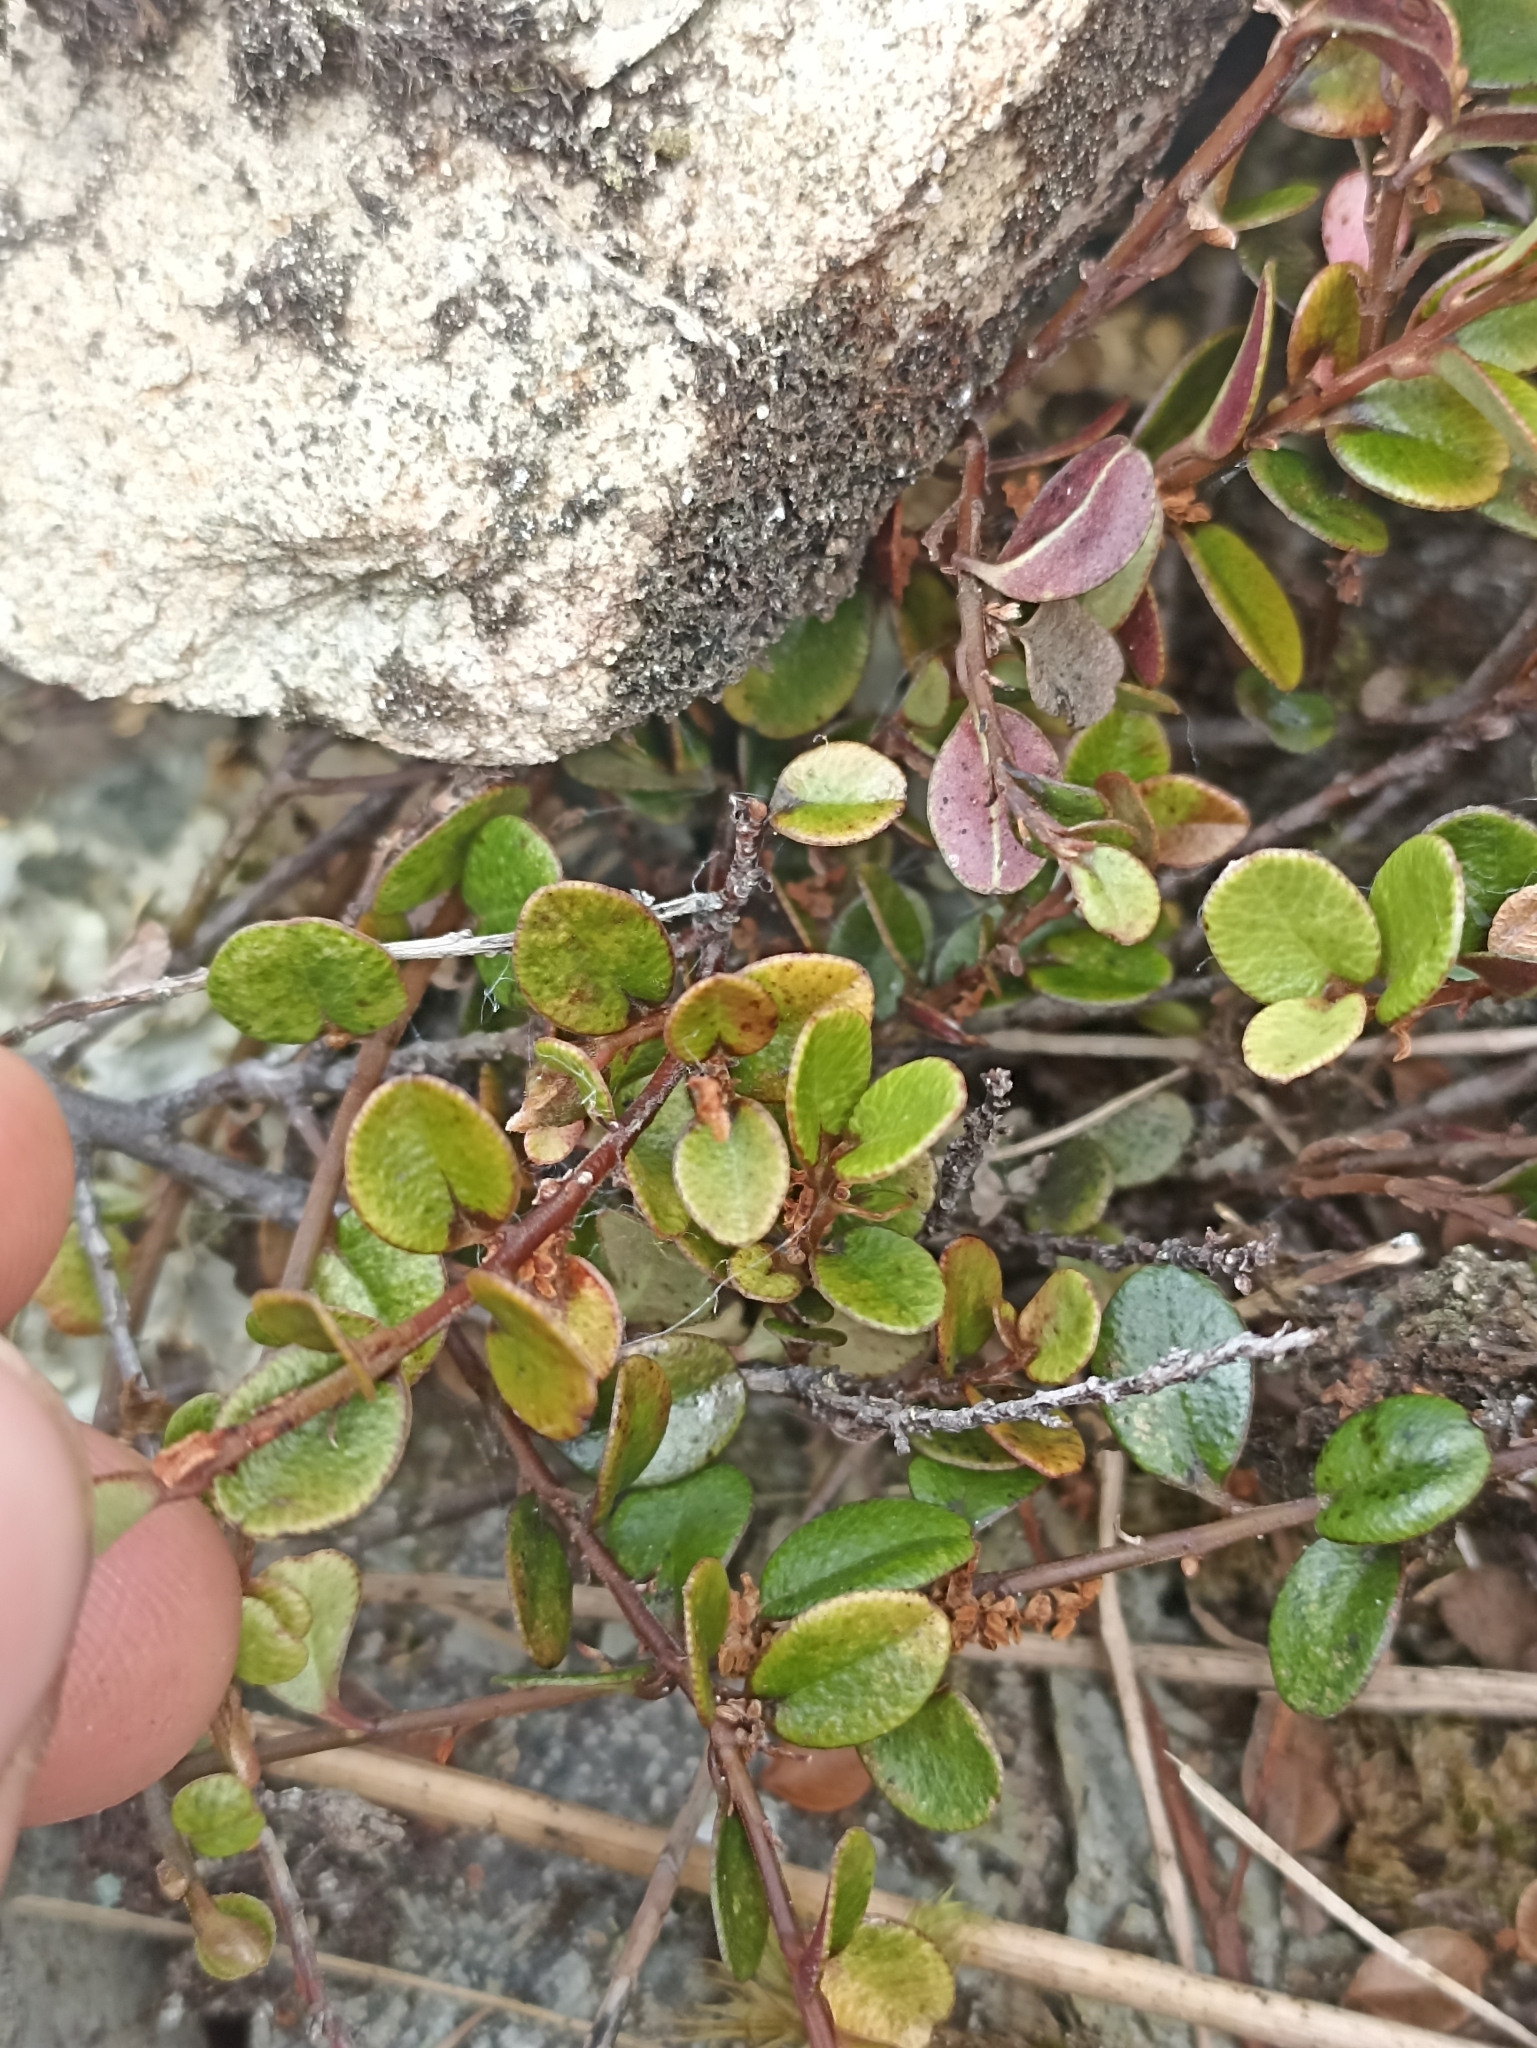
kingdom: Plantae
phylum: Tracheophyta
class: Magnoliopsida
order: Ericales
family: Primulaceae
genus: Myrsine
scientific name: Myrsine nummularia
